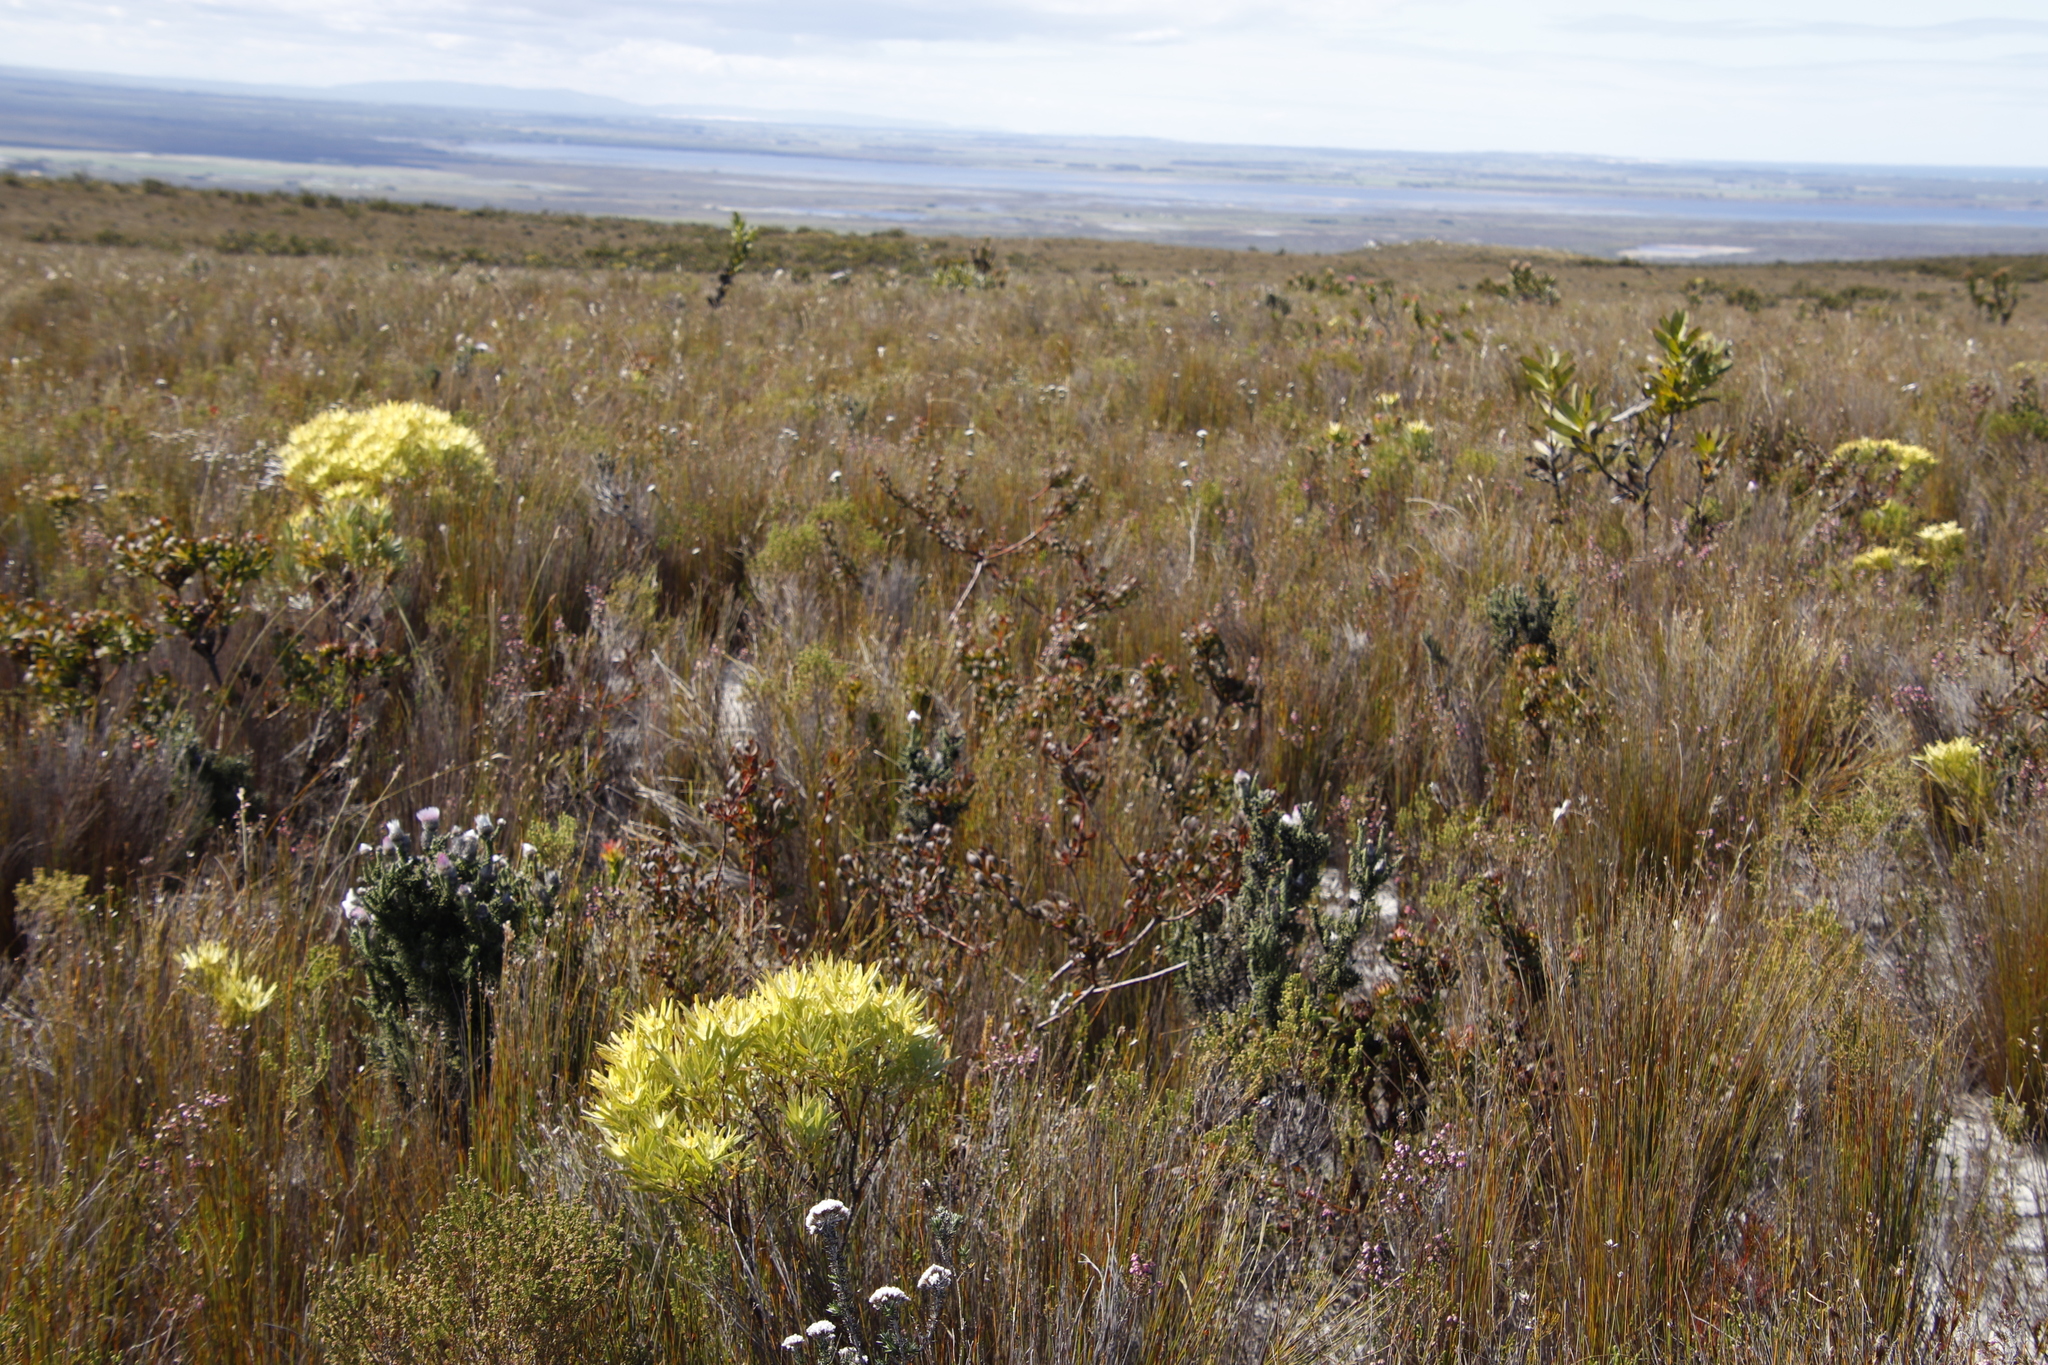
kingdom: Plantae
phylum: Tracheophyta
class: Magnoliopsida
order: Proteales
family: Proteaceae
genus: Aulax
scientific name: Aulax umbellata
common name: Broad-leaf featherbush
